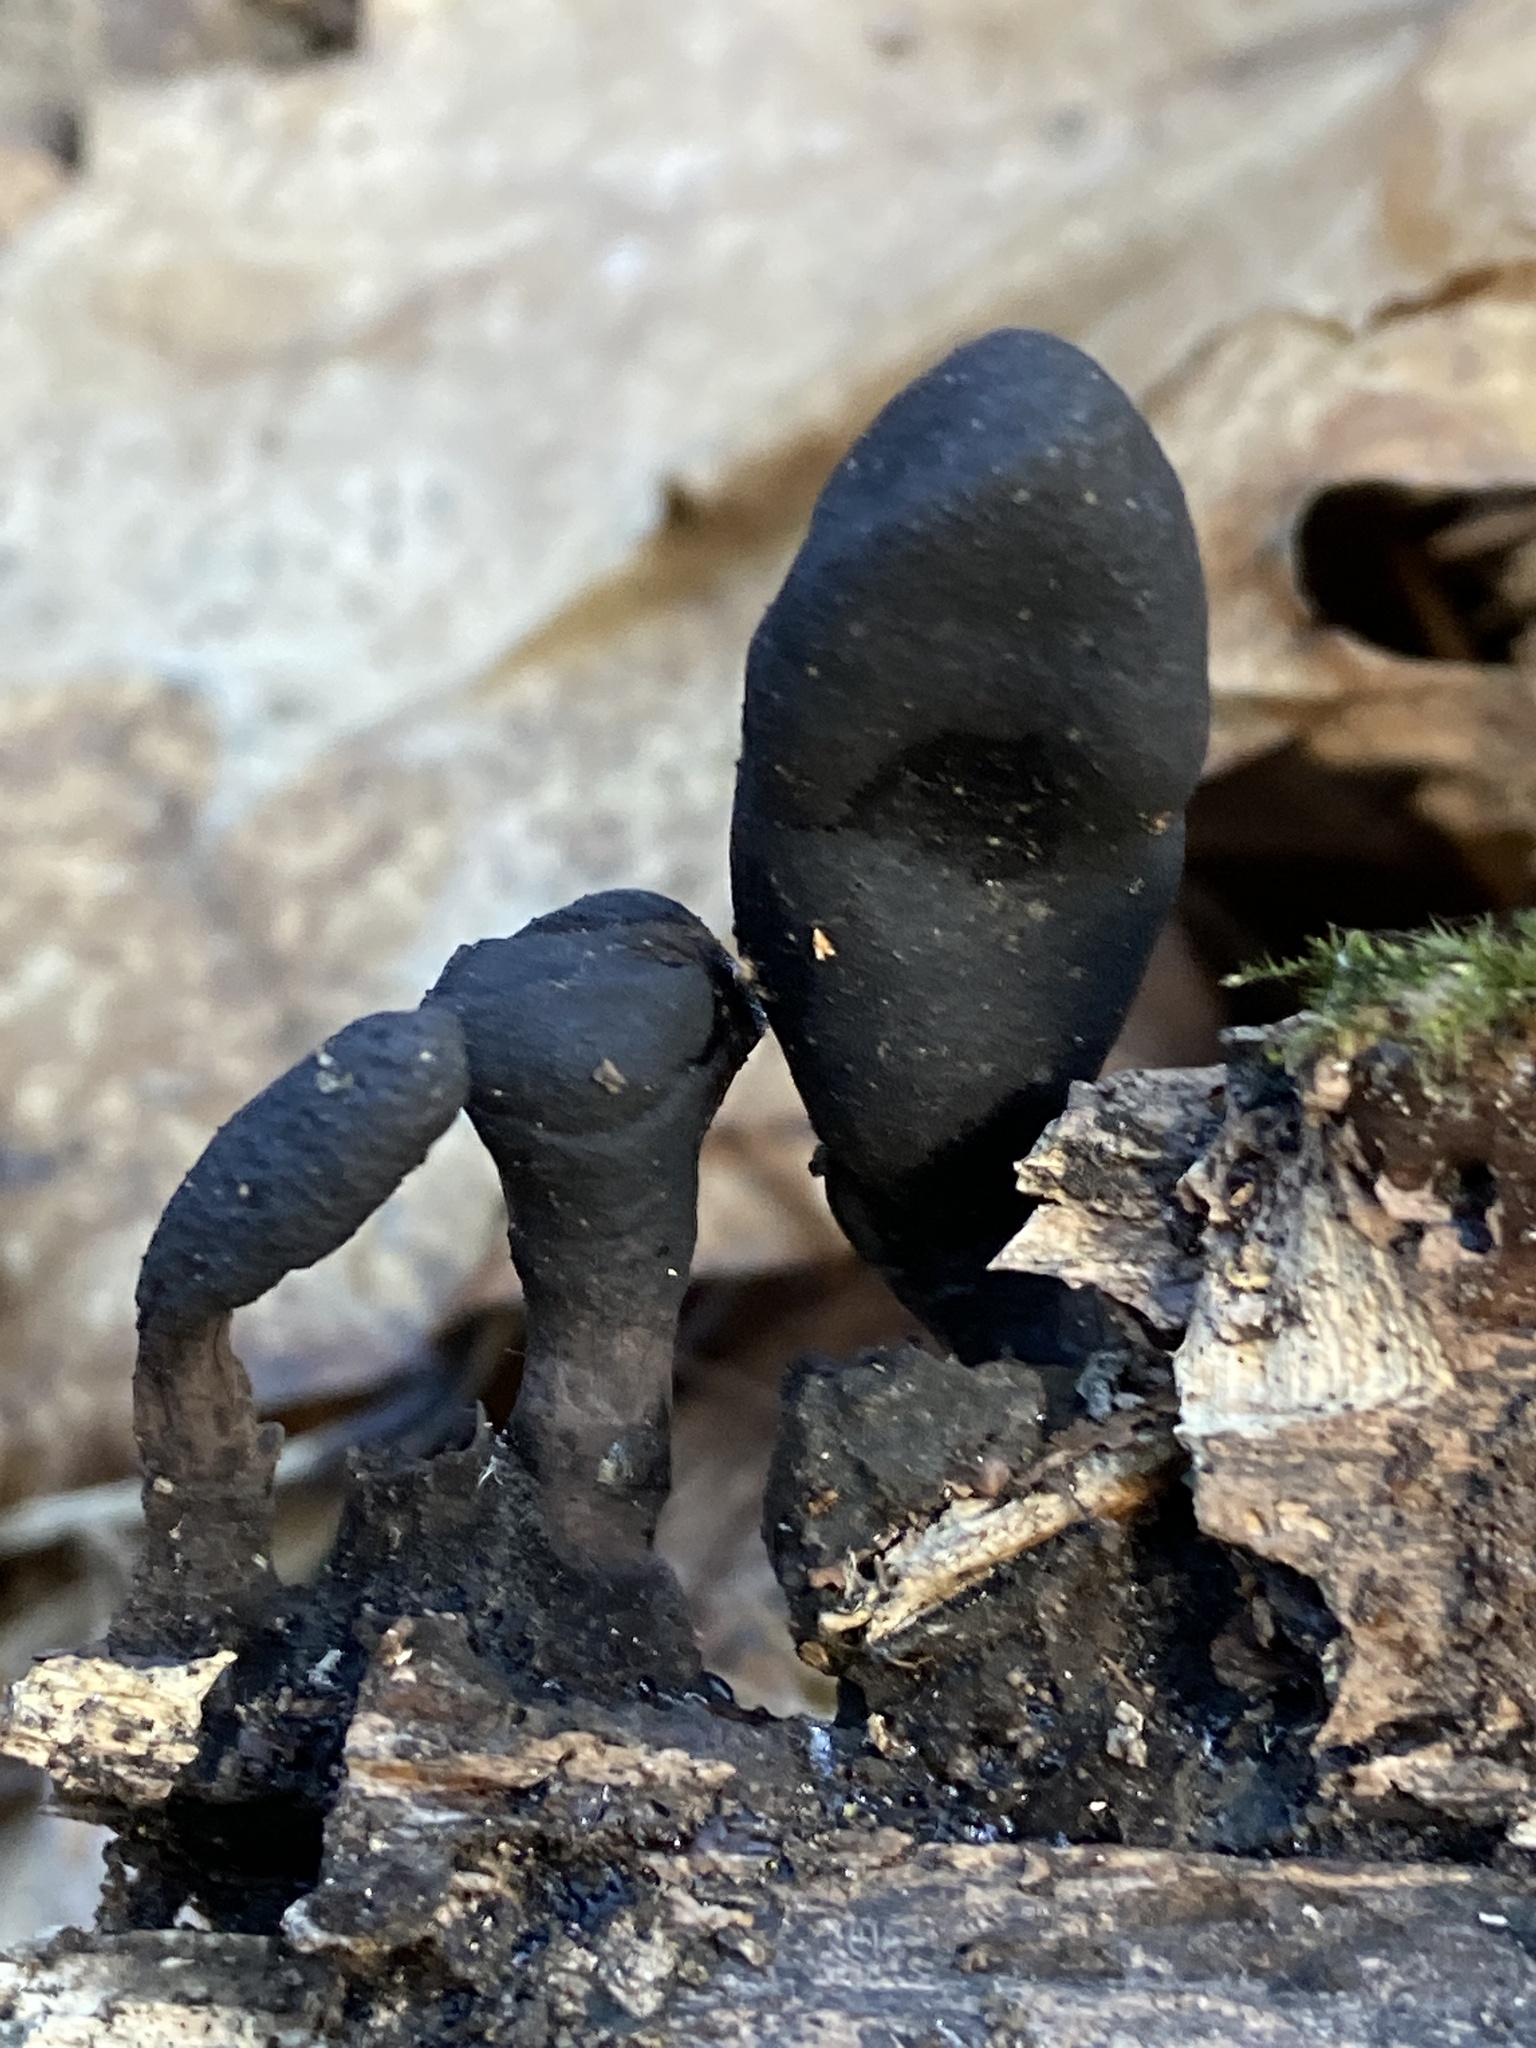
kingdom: Fungi
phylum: Ascomycota
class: Sordariomycetes
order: Xylariales
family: Xylariaceae
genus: Xylaria
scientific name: Xylaria polymorpha
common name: Dead man's fingers
